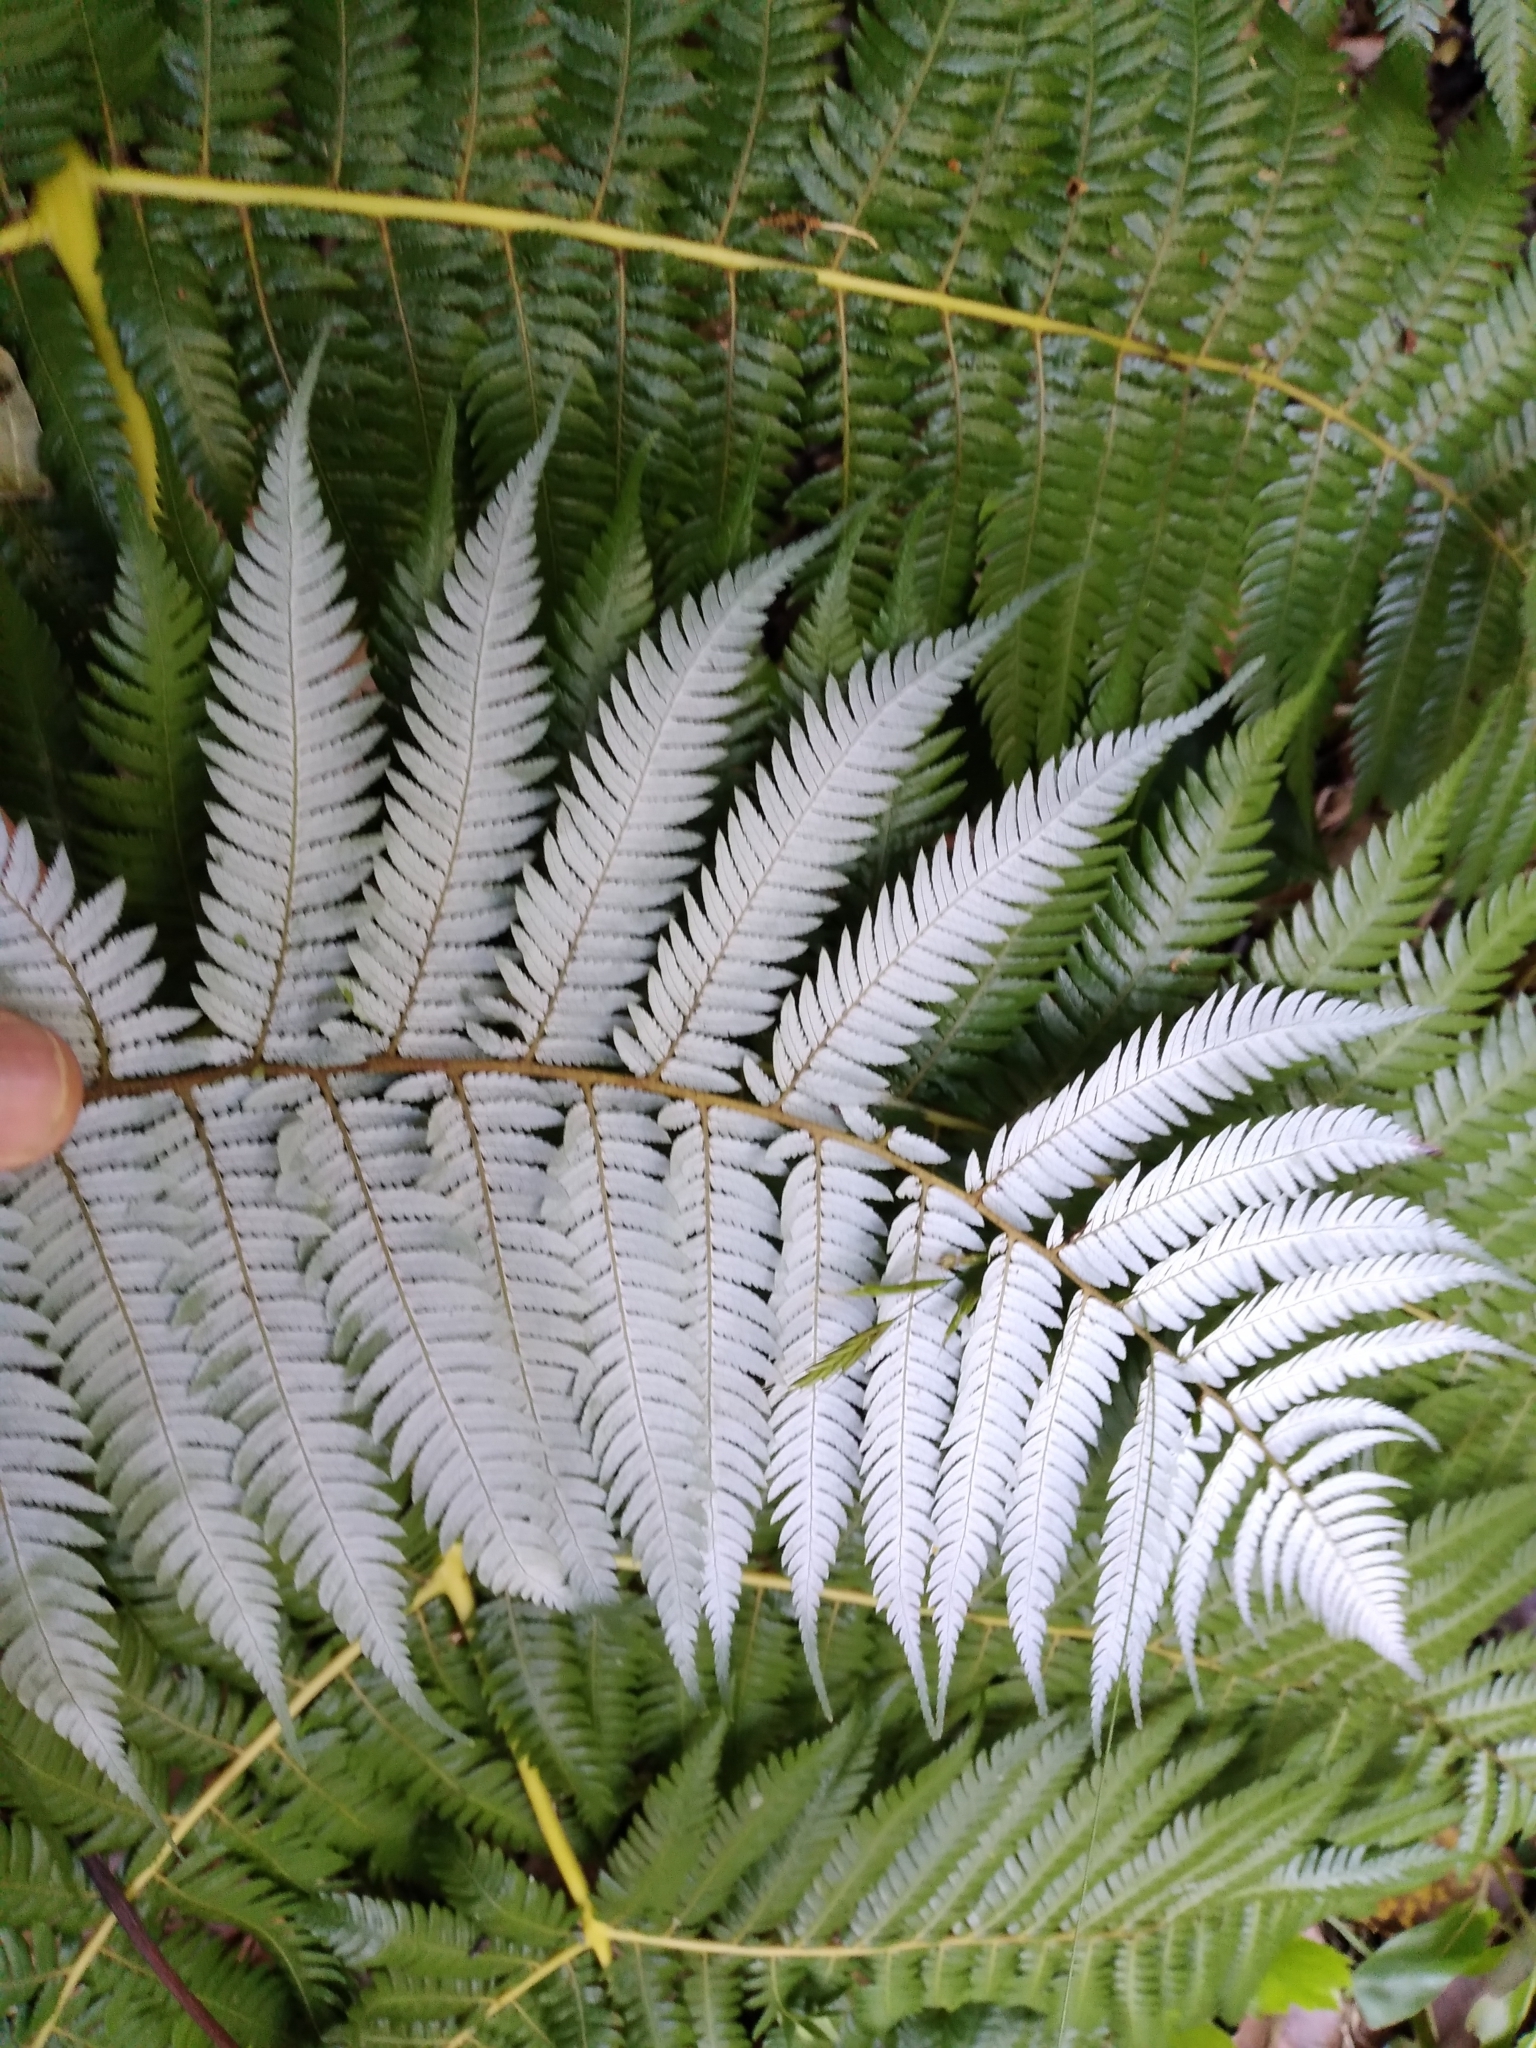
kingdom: Plantae
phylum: Tracheophyta
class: Polypodiopsida
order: Cyatheales
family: Cyatheaceae
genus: Alsophila
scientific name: Alsophila dealbata
